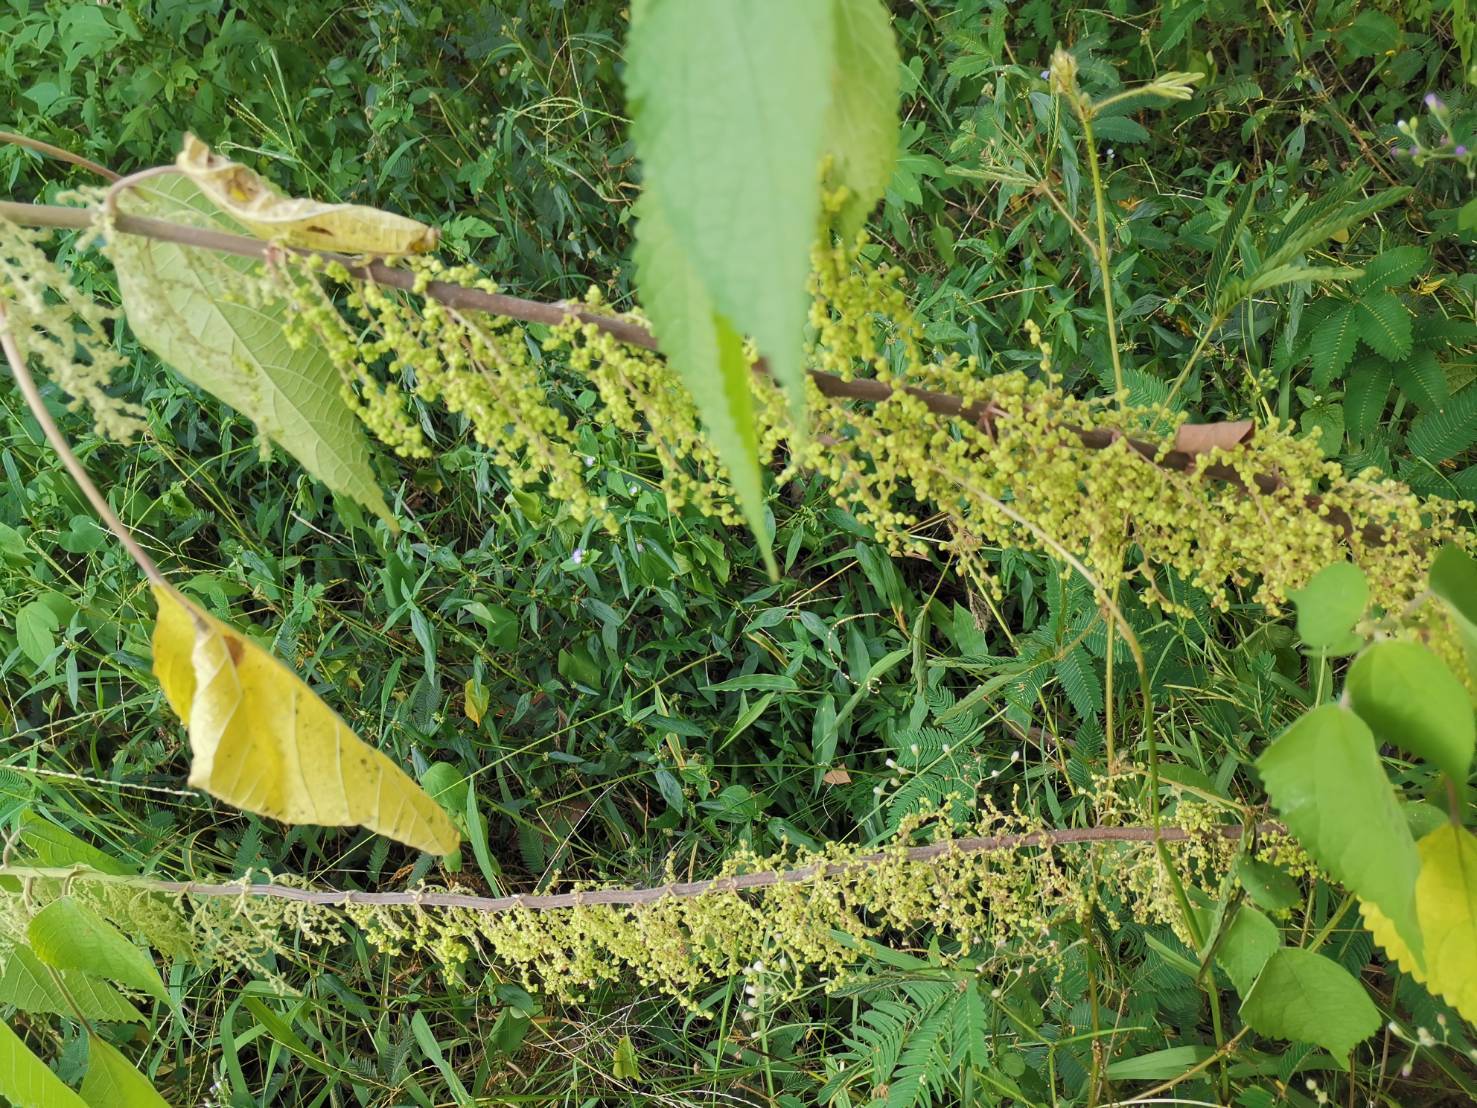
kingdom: Plantae
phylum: Tracheophyta
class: Magnoliopsida
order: Rosales
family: Urticaceae
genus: Boehmeria
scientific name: Boehmeria nivea
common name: Ramie chinese grass
